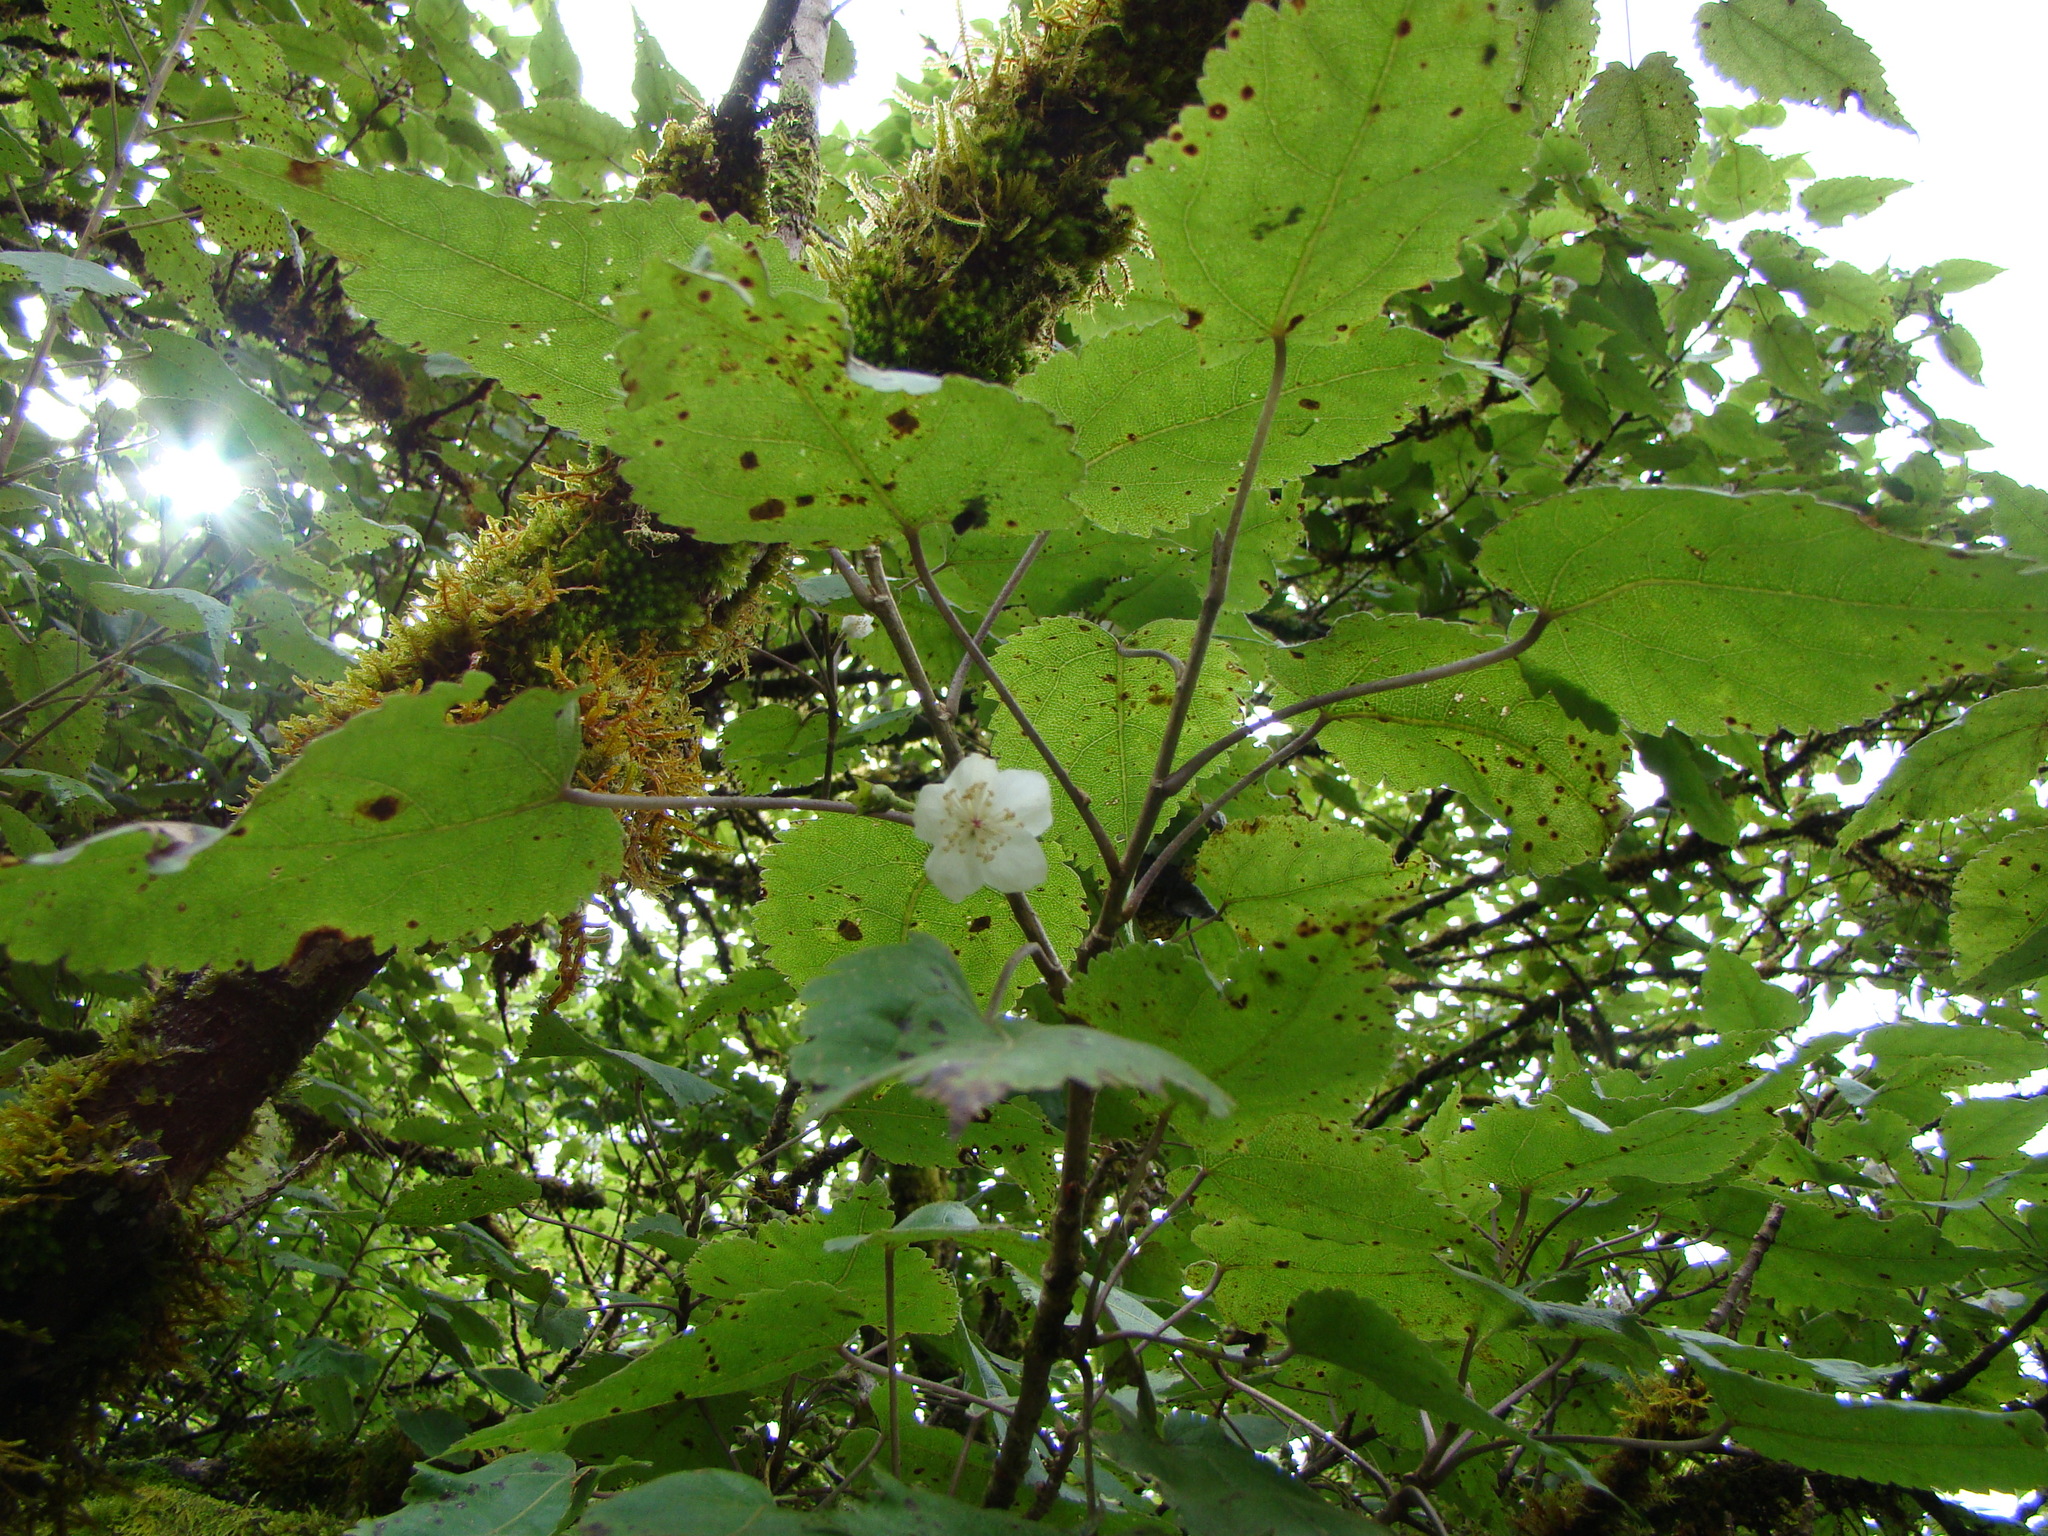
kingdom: Plantae
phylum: Tracheophyta
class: Magnoliopsida
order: Malvales
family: Malvaceae
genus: Hoheria
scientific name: Hoheria glabrata
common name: Mountain-ribbon
